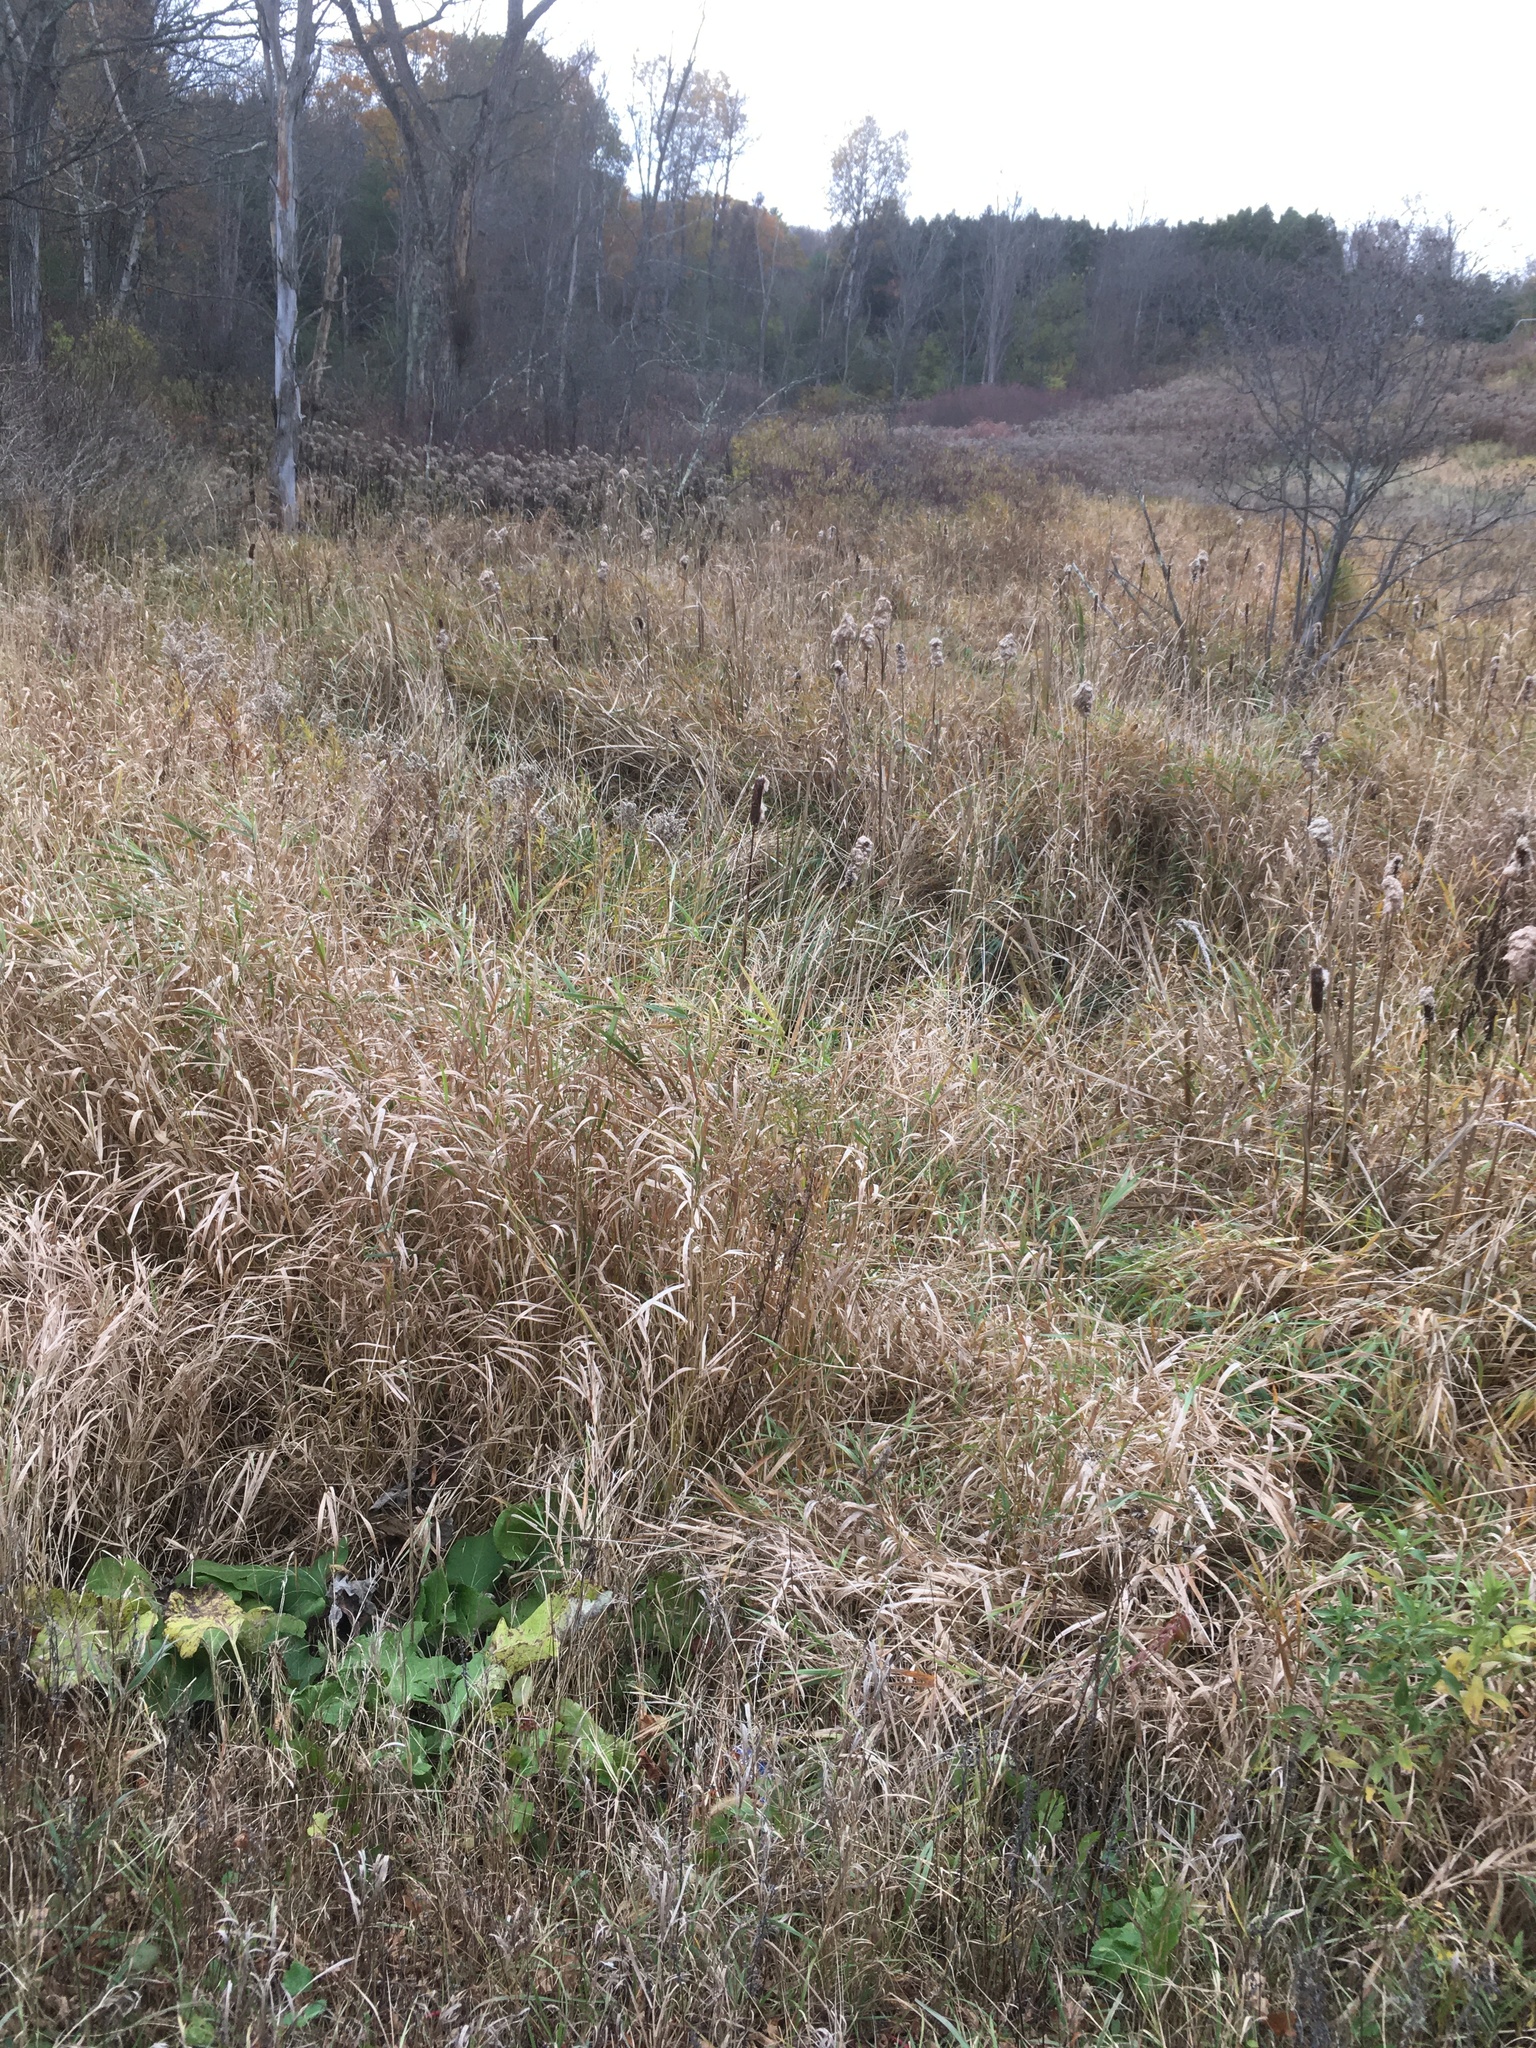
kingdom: Plantae
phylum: Tracheophyta
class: Liliopsida
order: Poales
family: Poaceae
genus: Phalaris
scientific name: Phalaris arundinacea
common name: Reed canary-grass
